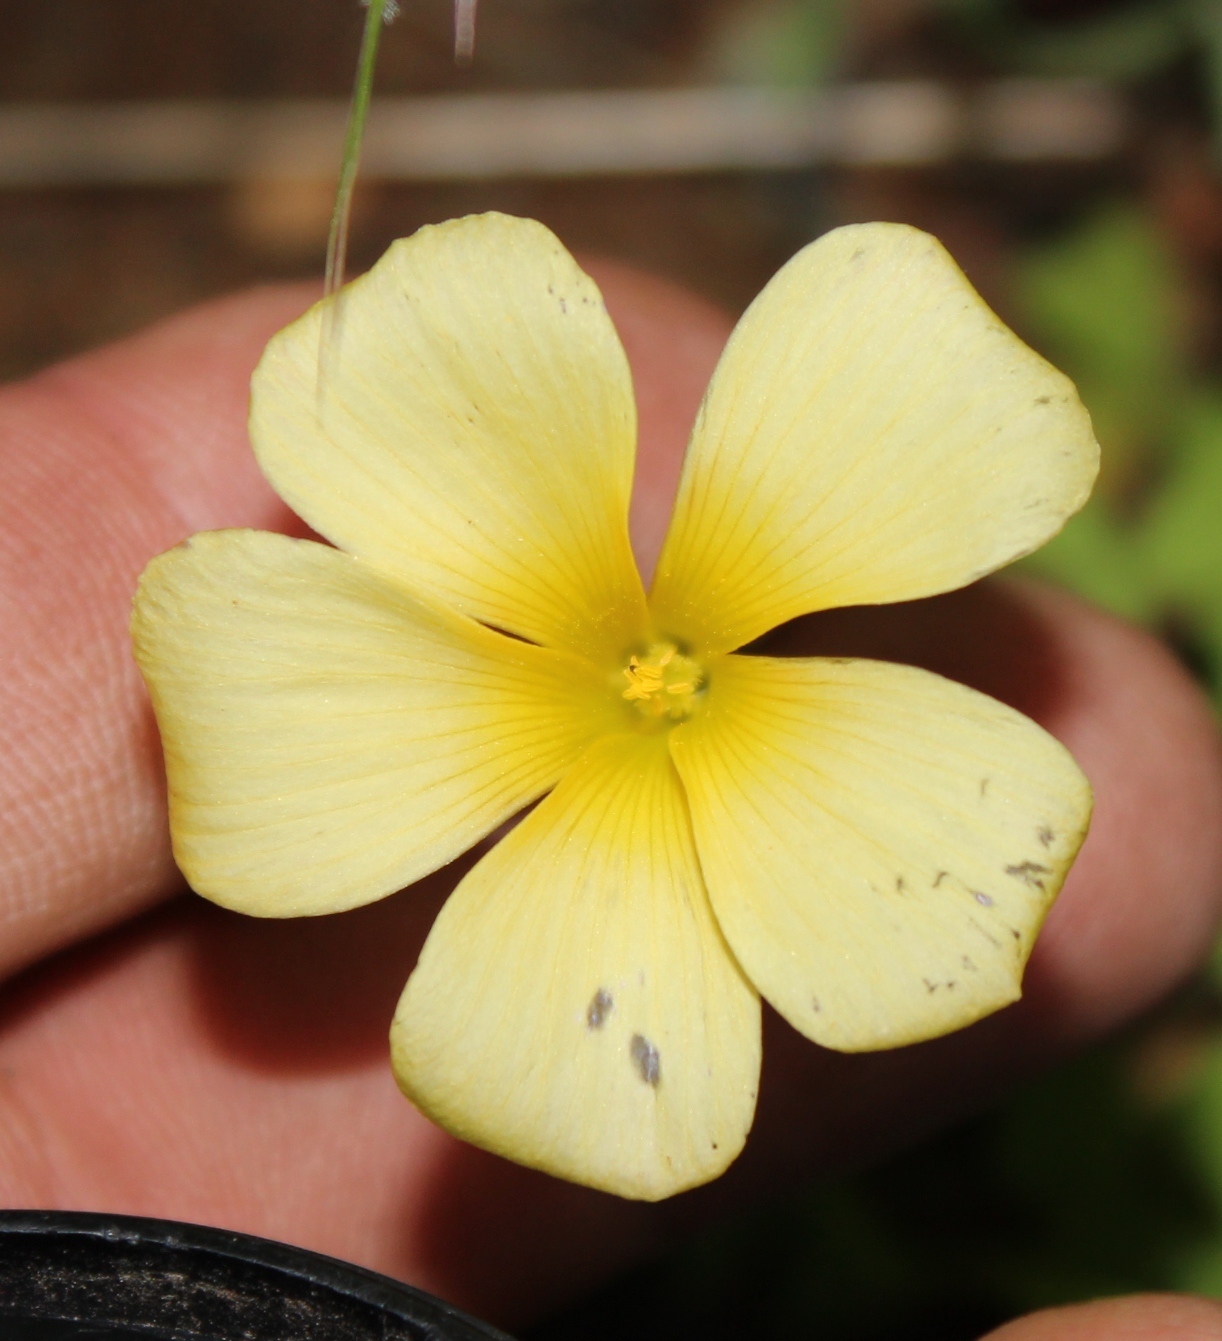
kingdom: Plantae
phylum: Tracheophyta
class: Magnoliopsida
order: Oxalidales
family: Oxalidaceae
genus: Oxalis
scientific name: Oxalis obtusa
